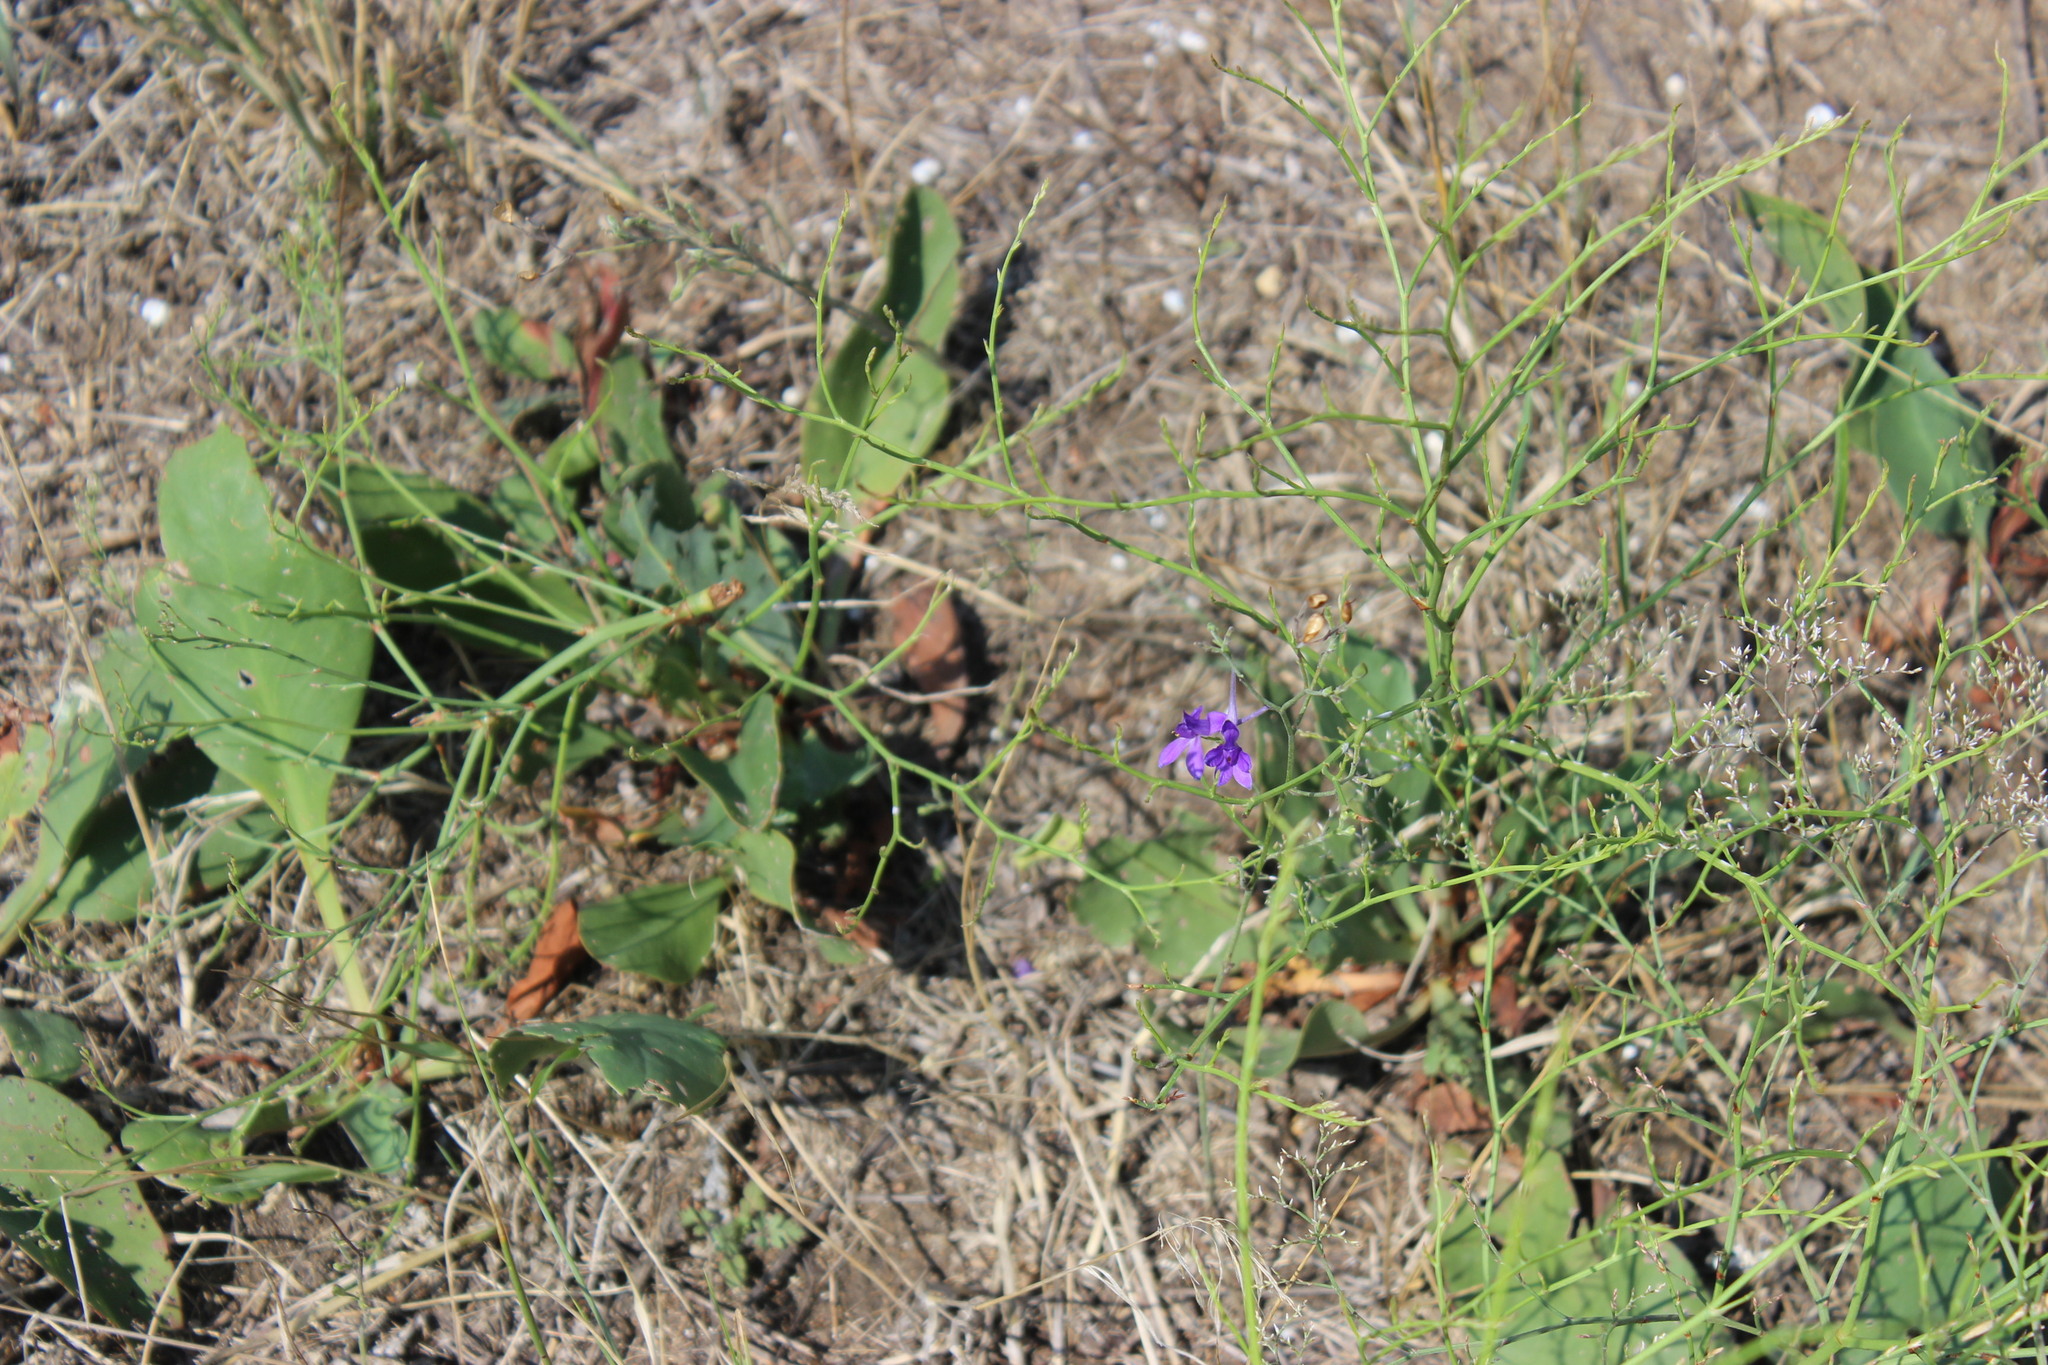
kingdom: Plantae
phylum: Tracheophyta
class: Magnoliopsida
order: Ranunculales
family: Ranunculaceae
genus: Delphinium
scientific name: Delphinium consolida
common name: Branching larkspur
